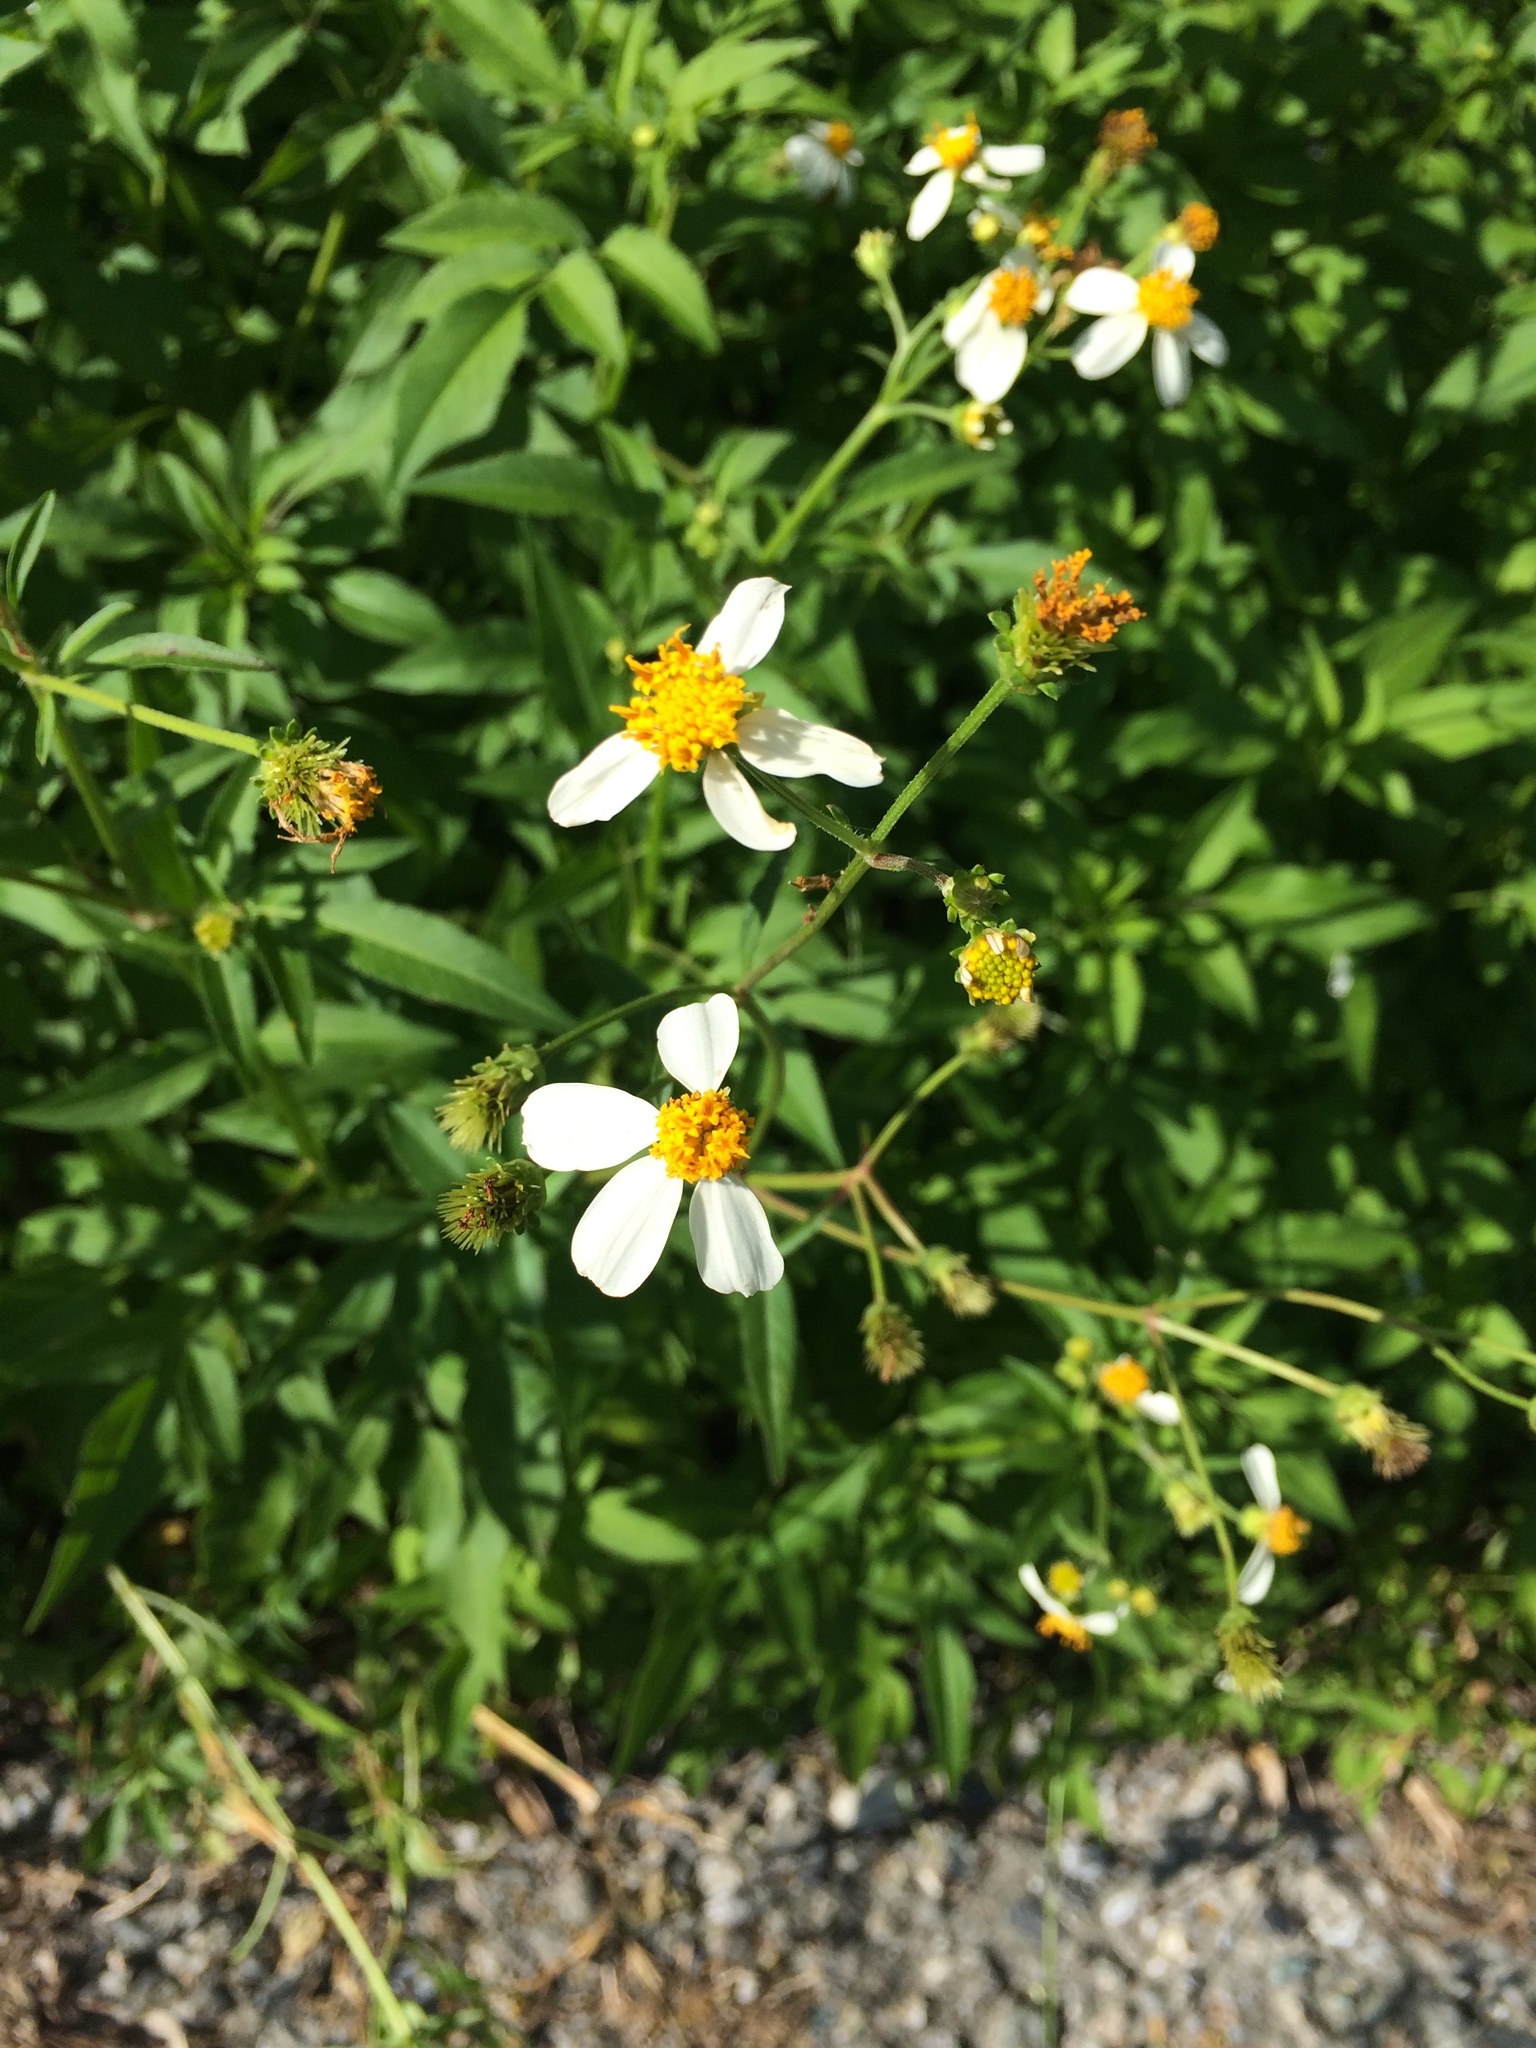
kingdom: Plantae
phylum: Tracheophyta
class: Magnoliopsida
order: Asterales
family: Asteraceae
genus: Bidens
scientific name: Bidens alba
